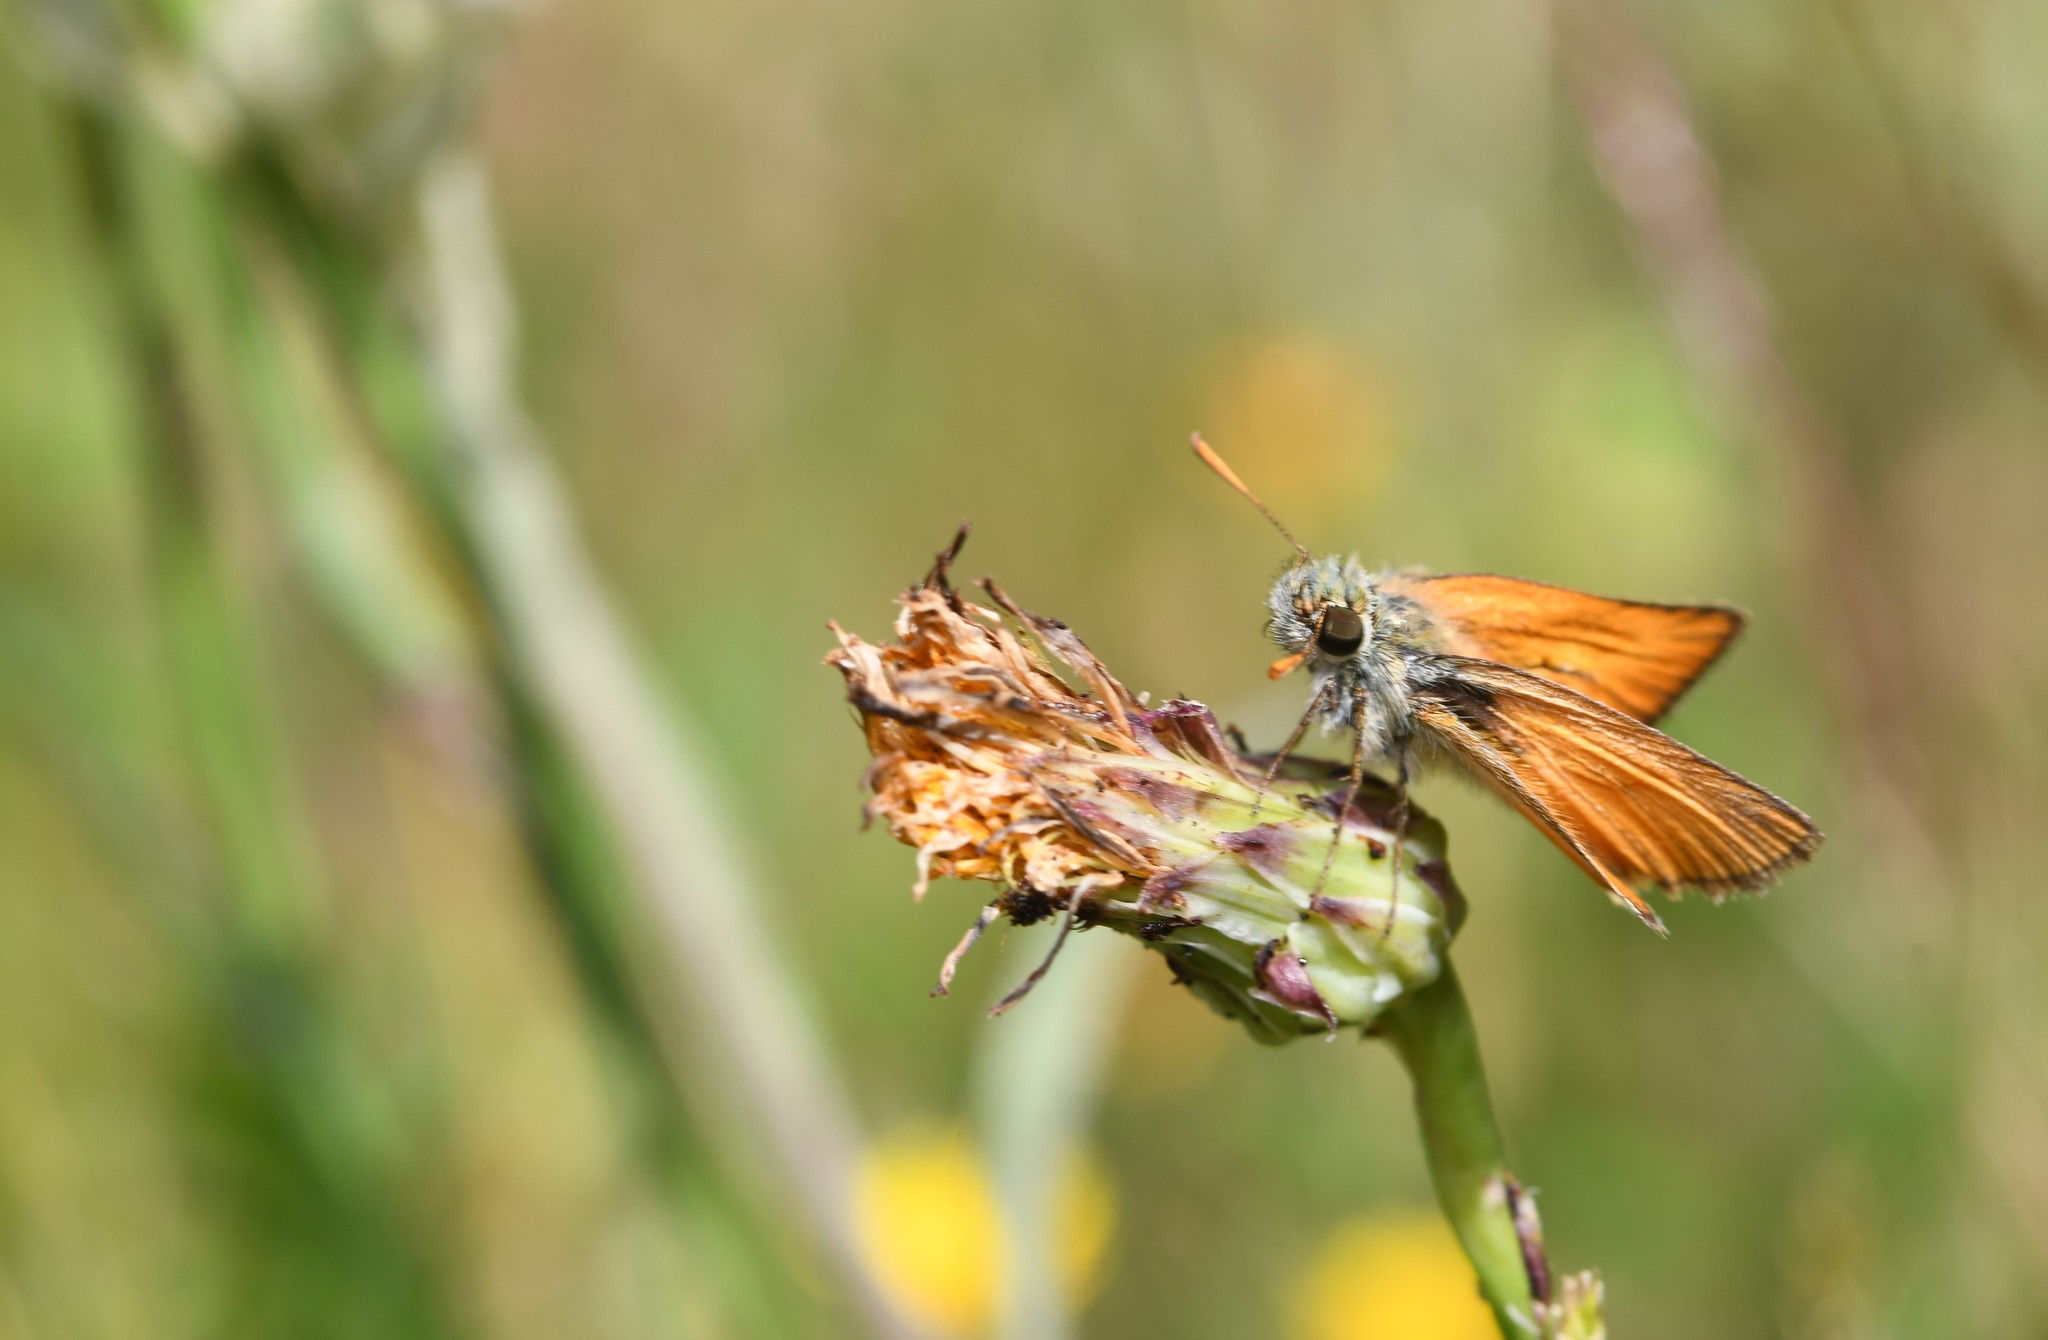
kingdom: Animalia
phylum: Arthropoda
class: Insecta
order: Lepidoptera
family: Hesperiidae
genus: Thymelicus
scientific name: Thymelicus sylvestris
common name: Small skipper
